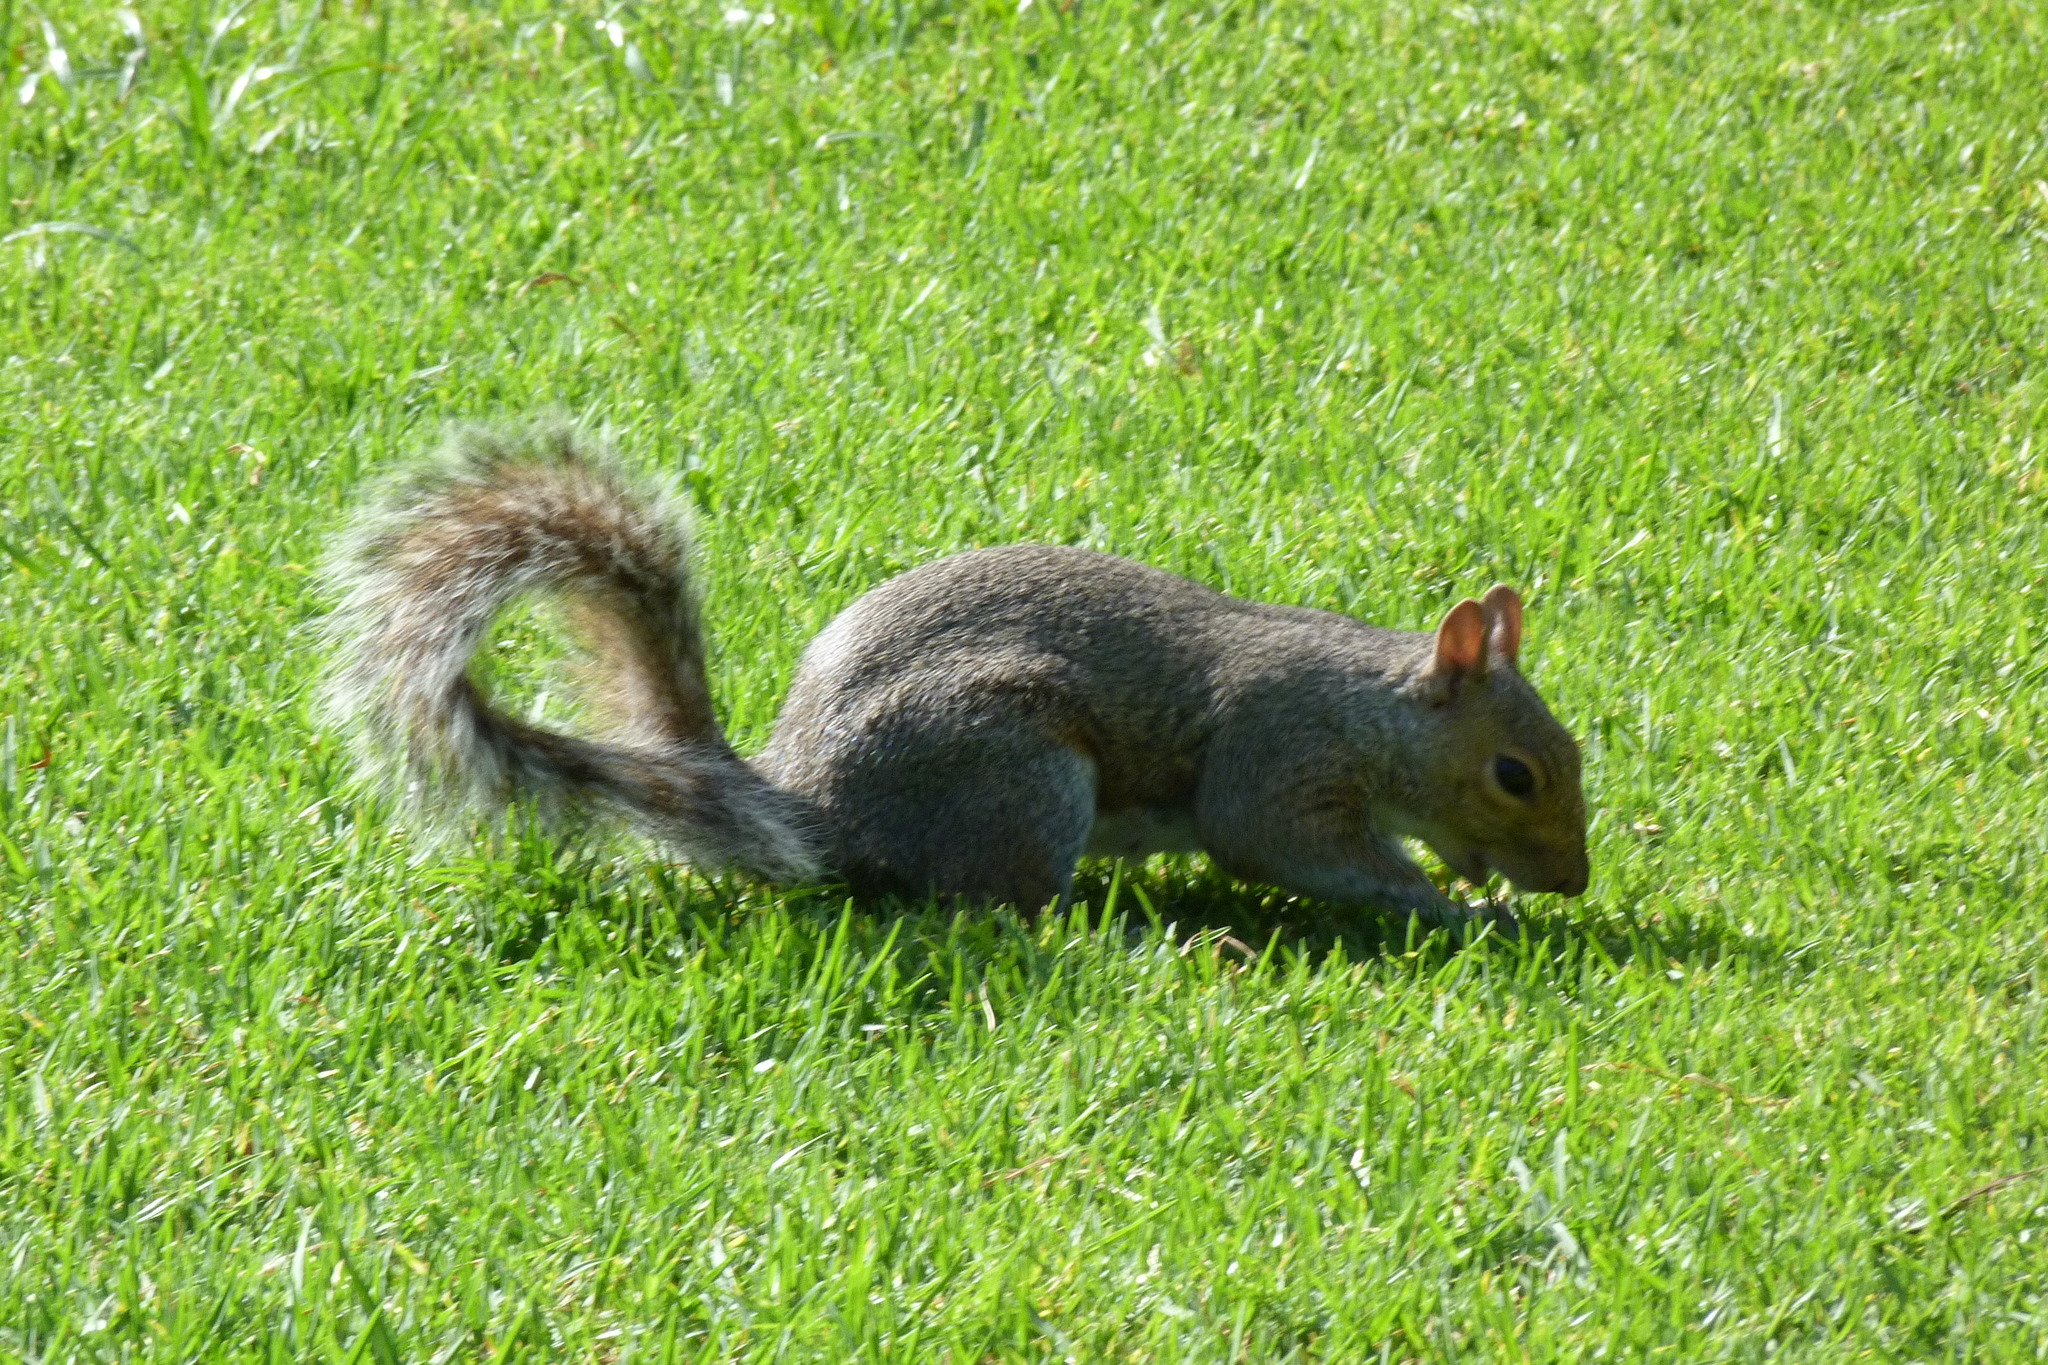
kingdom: Animalia
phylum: Chordata
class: Mammalia
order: Rodentia
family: Sciuridae
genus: Sciurus
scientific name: Sciurus carolinensis
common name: Eastern gray squirrel
